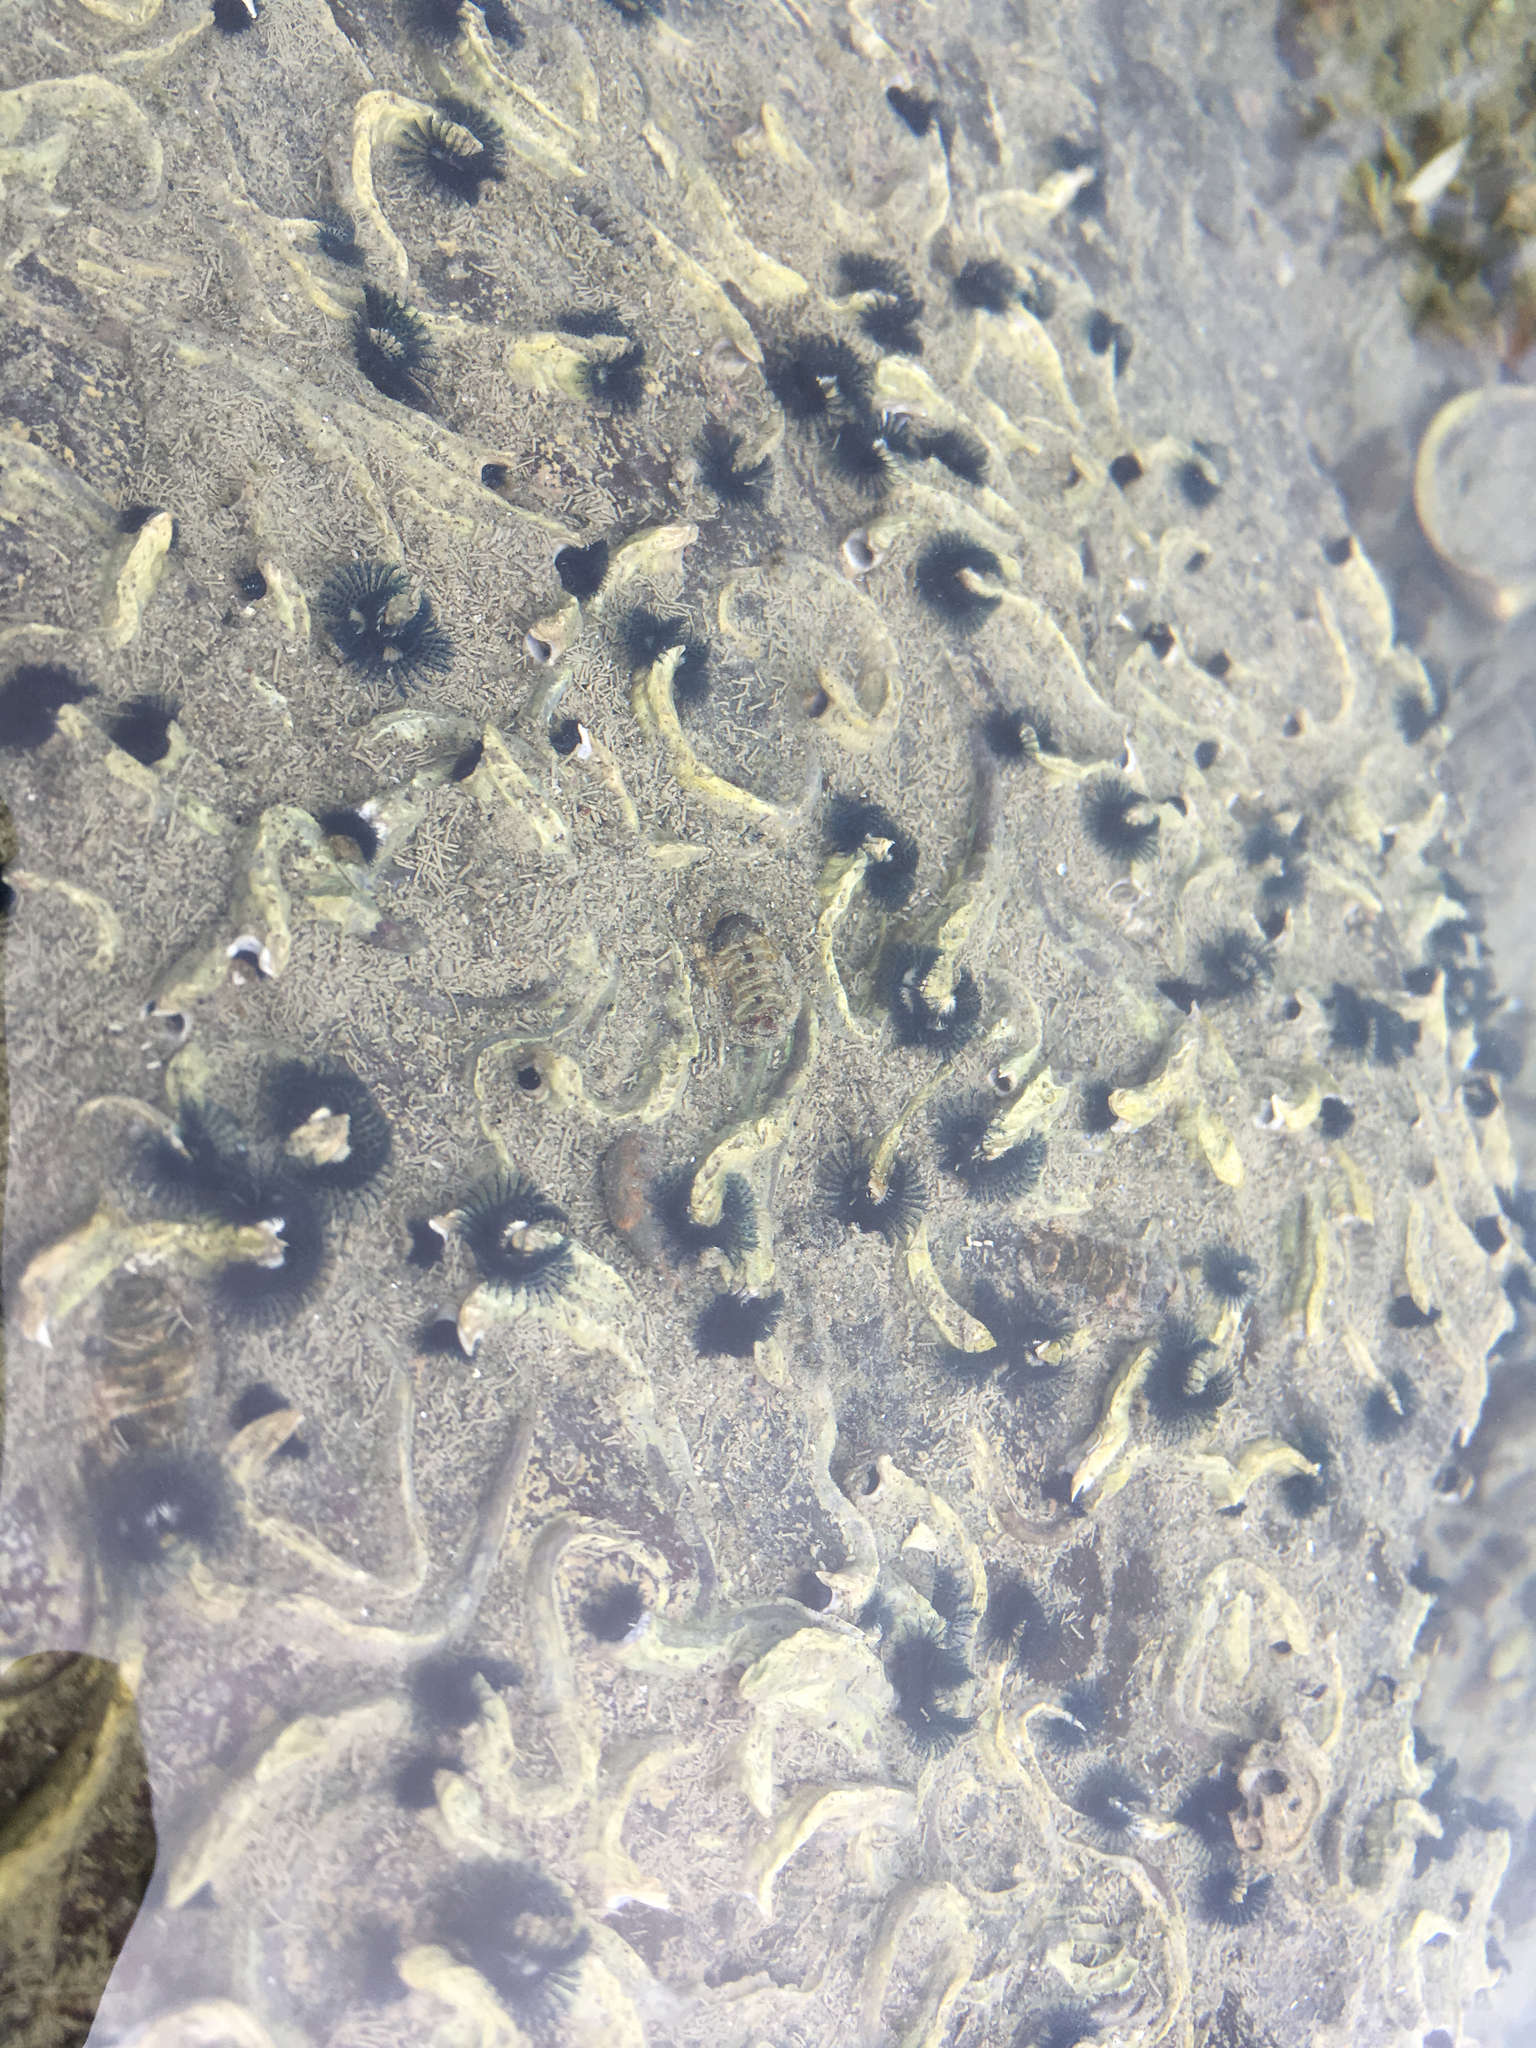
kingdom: Animalia
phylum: Annelida
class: Polychaeta
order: Sabellida
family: Serpulidae
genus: Spirobranchus
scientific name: Spirobranchus cariniferus
